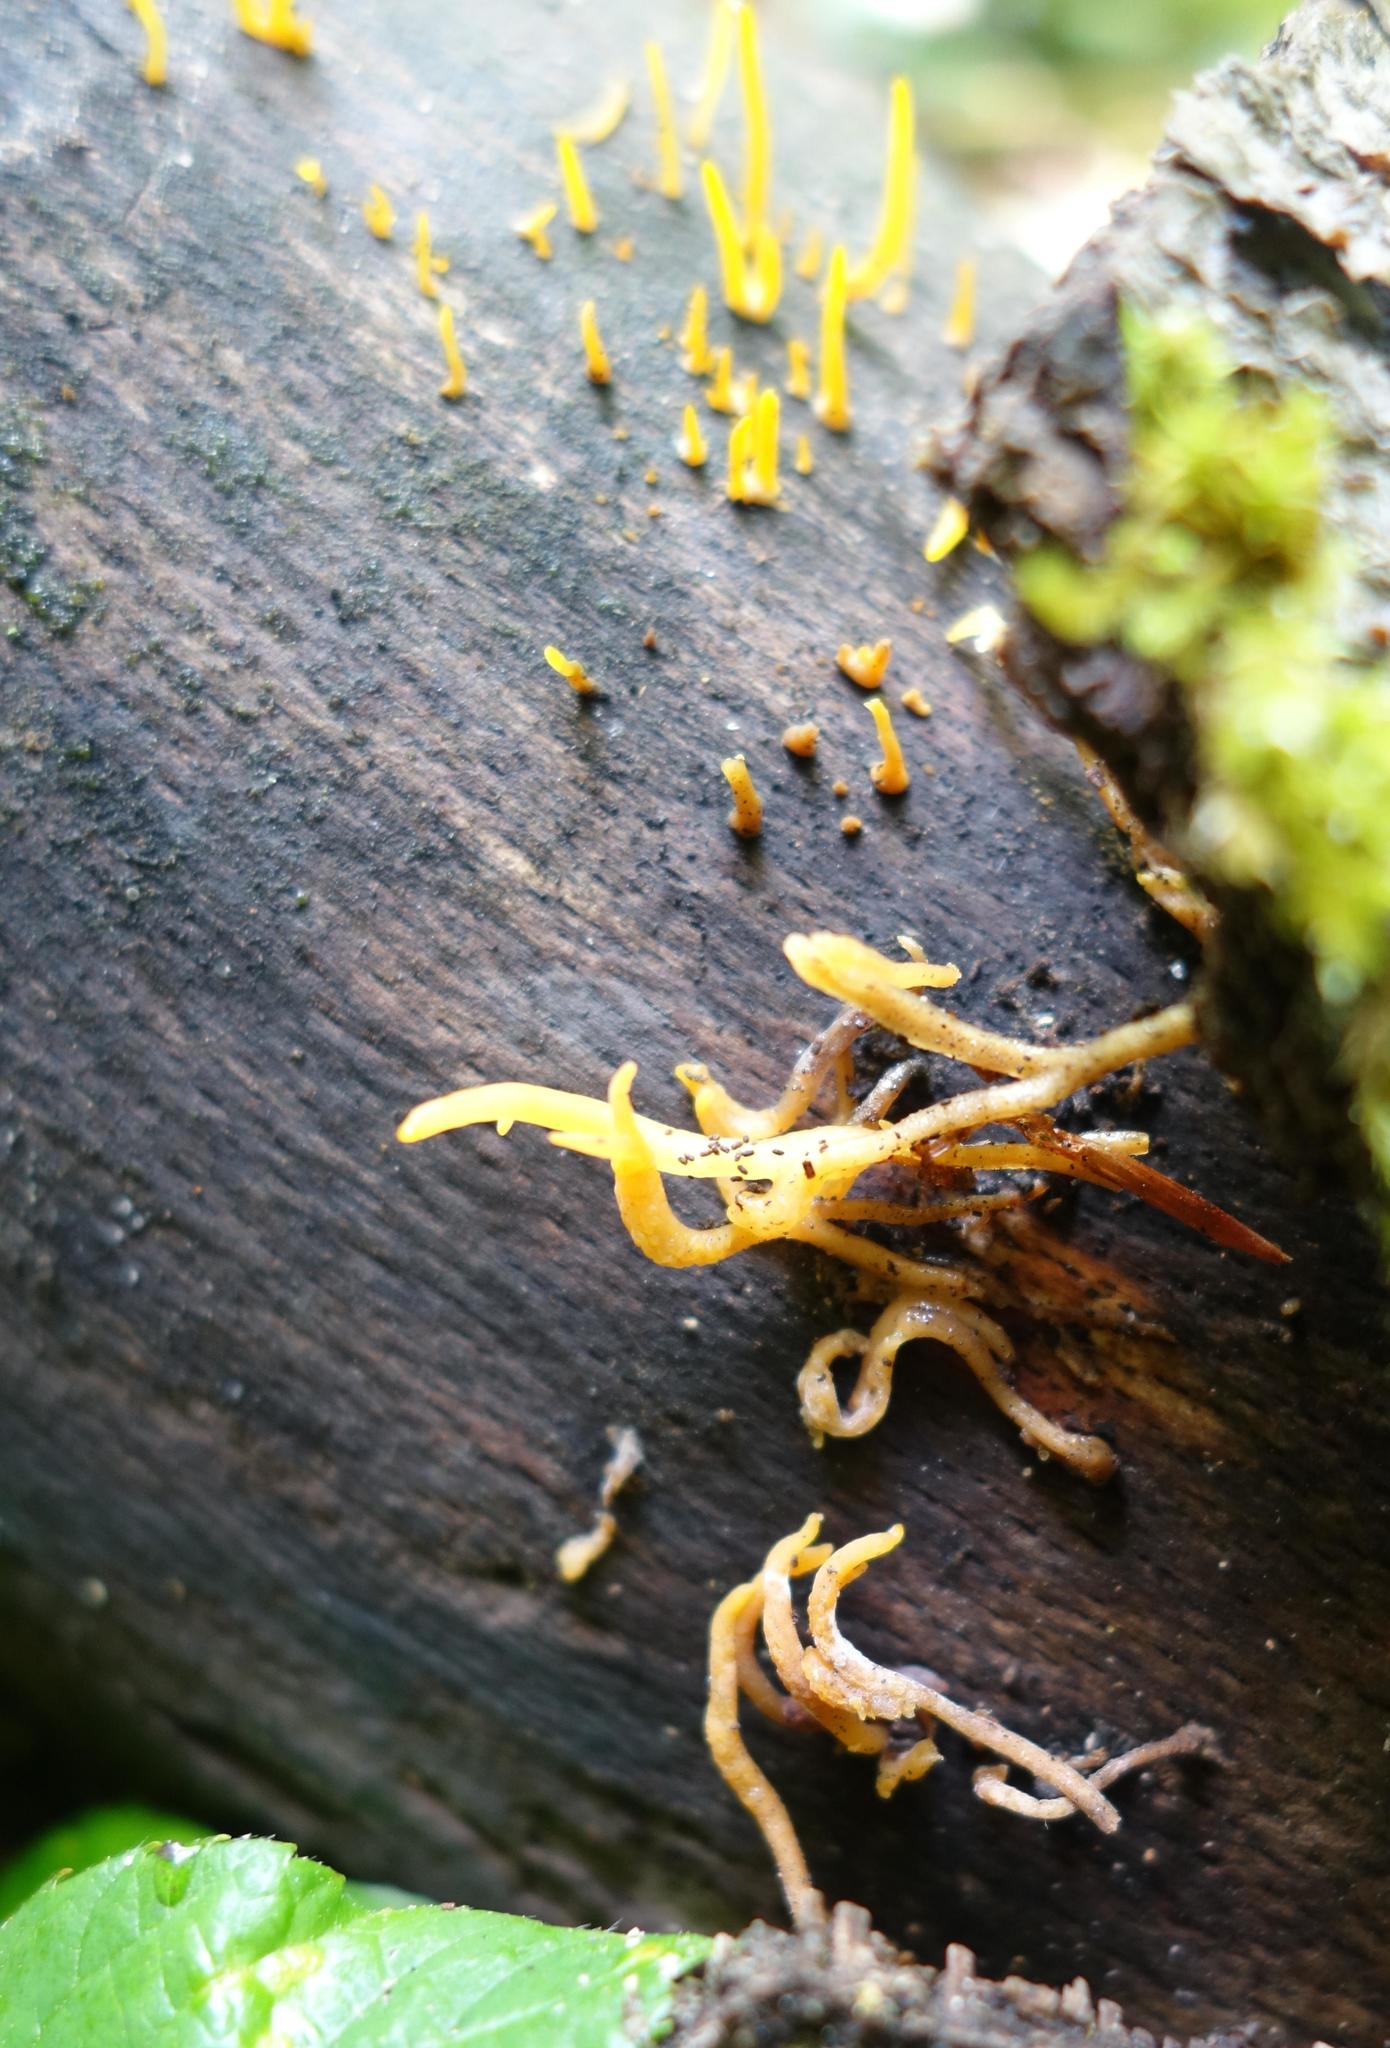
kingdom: Fungi
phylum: Basidiomycota
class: Dacrymycetes
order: Dacrymycetales
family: Dacrymycetaceae
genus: Calocera
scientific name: Calocera cornea
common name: Small stagshorn
